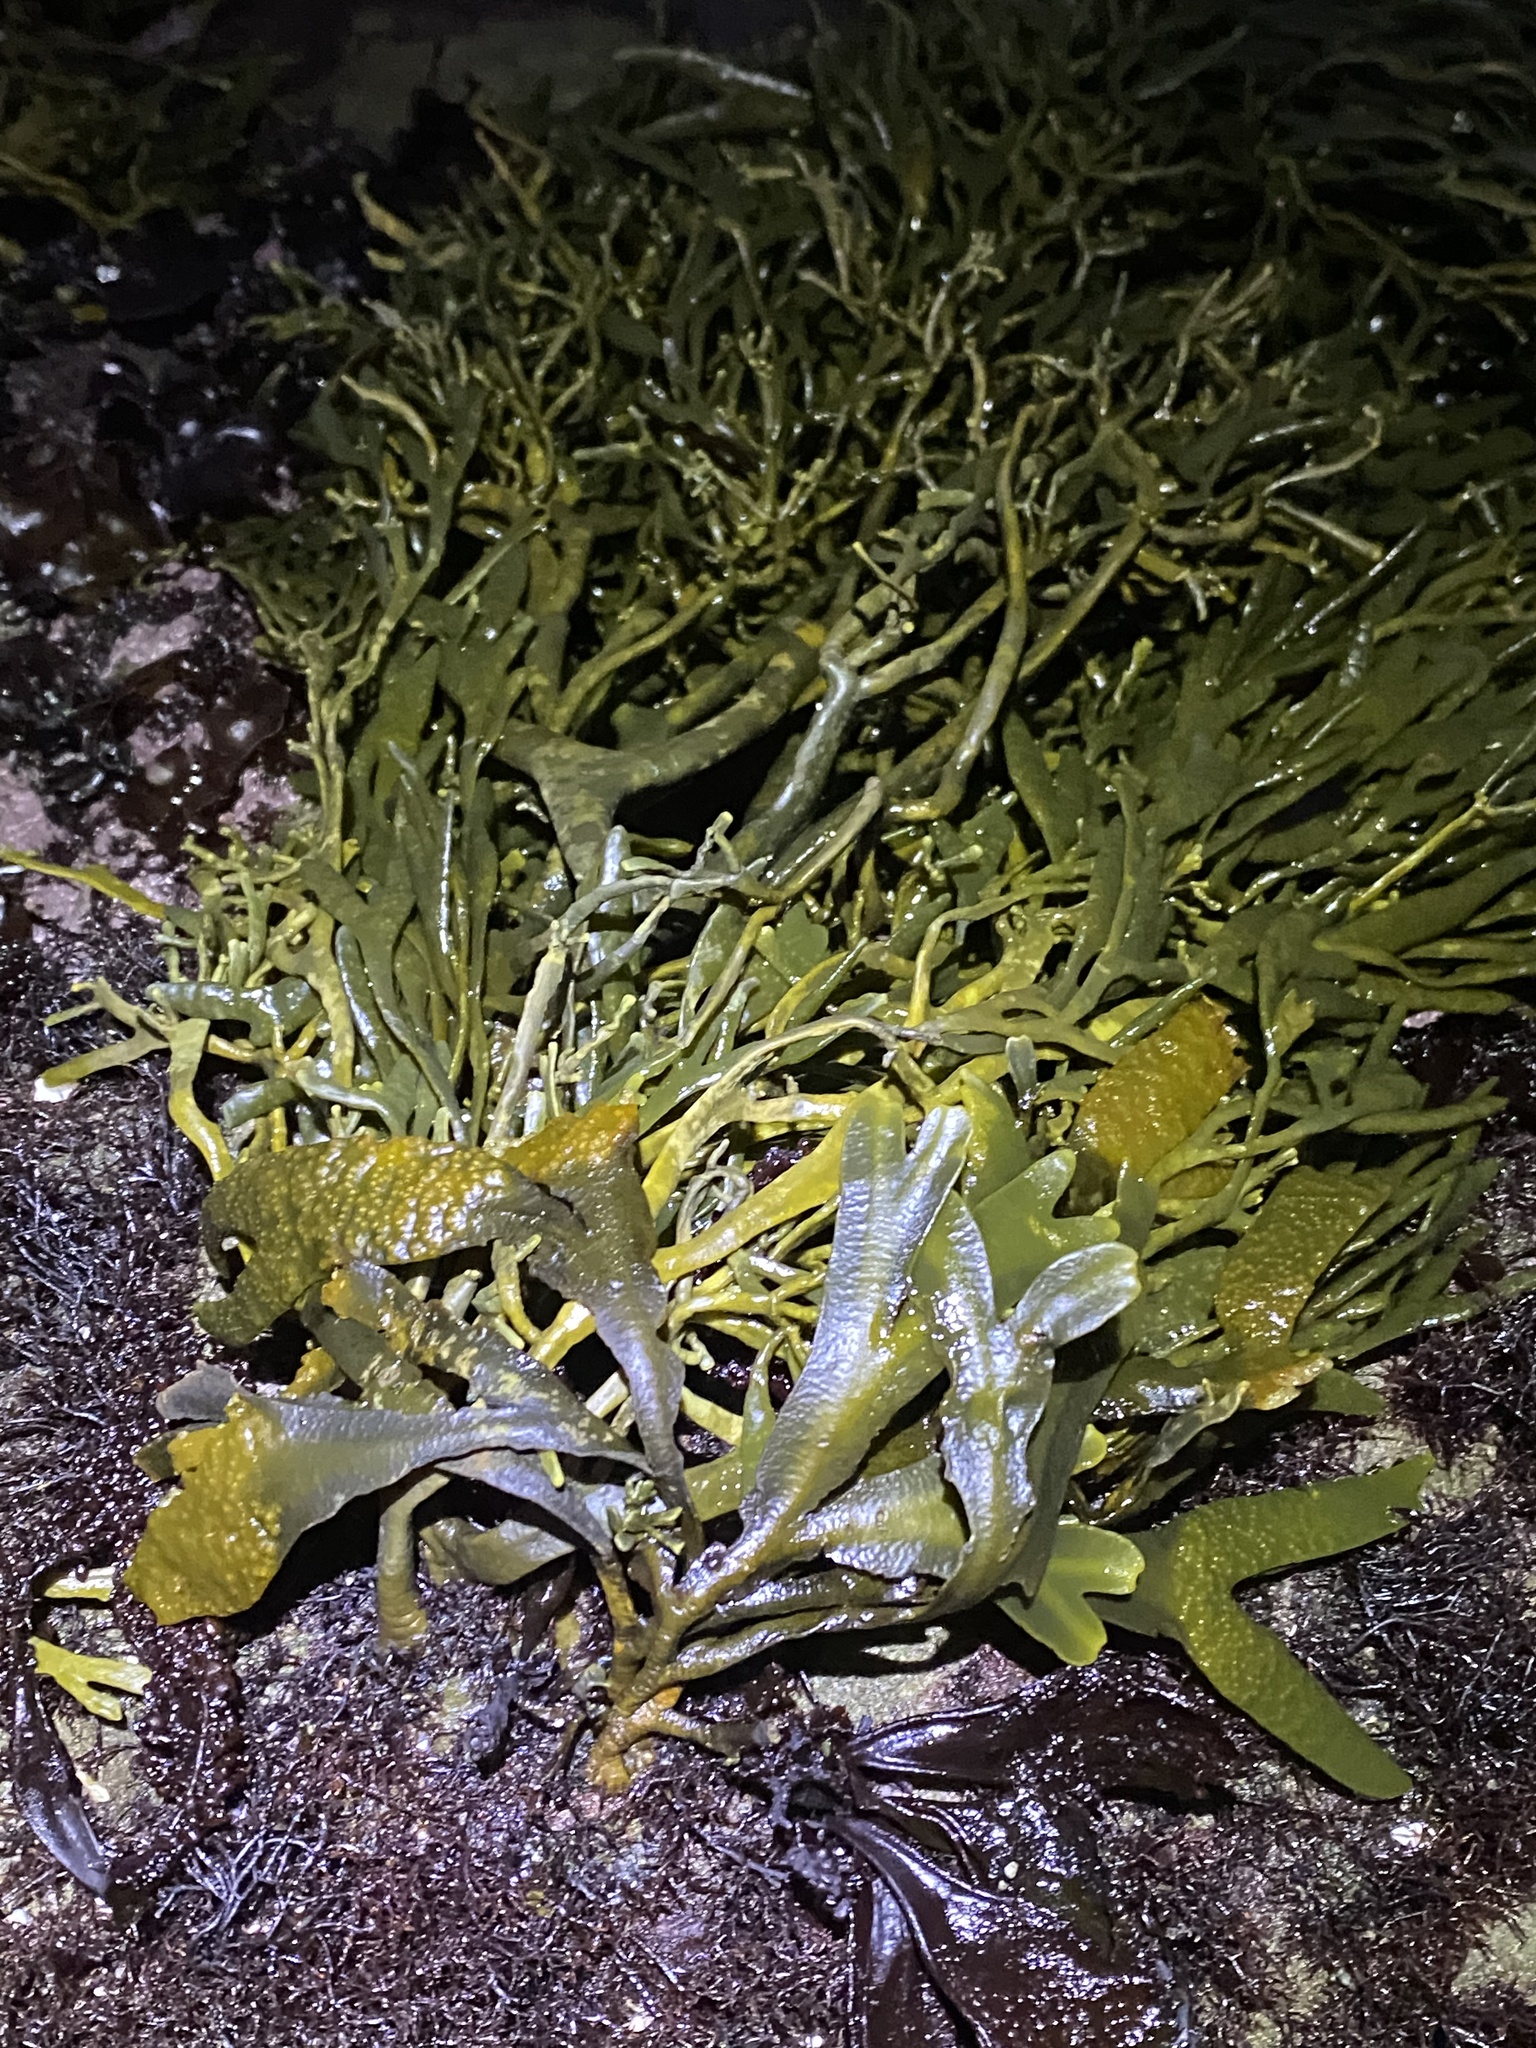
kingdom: Chromista
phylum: Ochrophyta
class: Phaeophyceae
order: Fucales
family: Fucaceae
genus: Silvetia
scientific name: Silvetia
